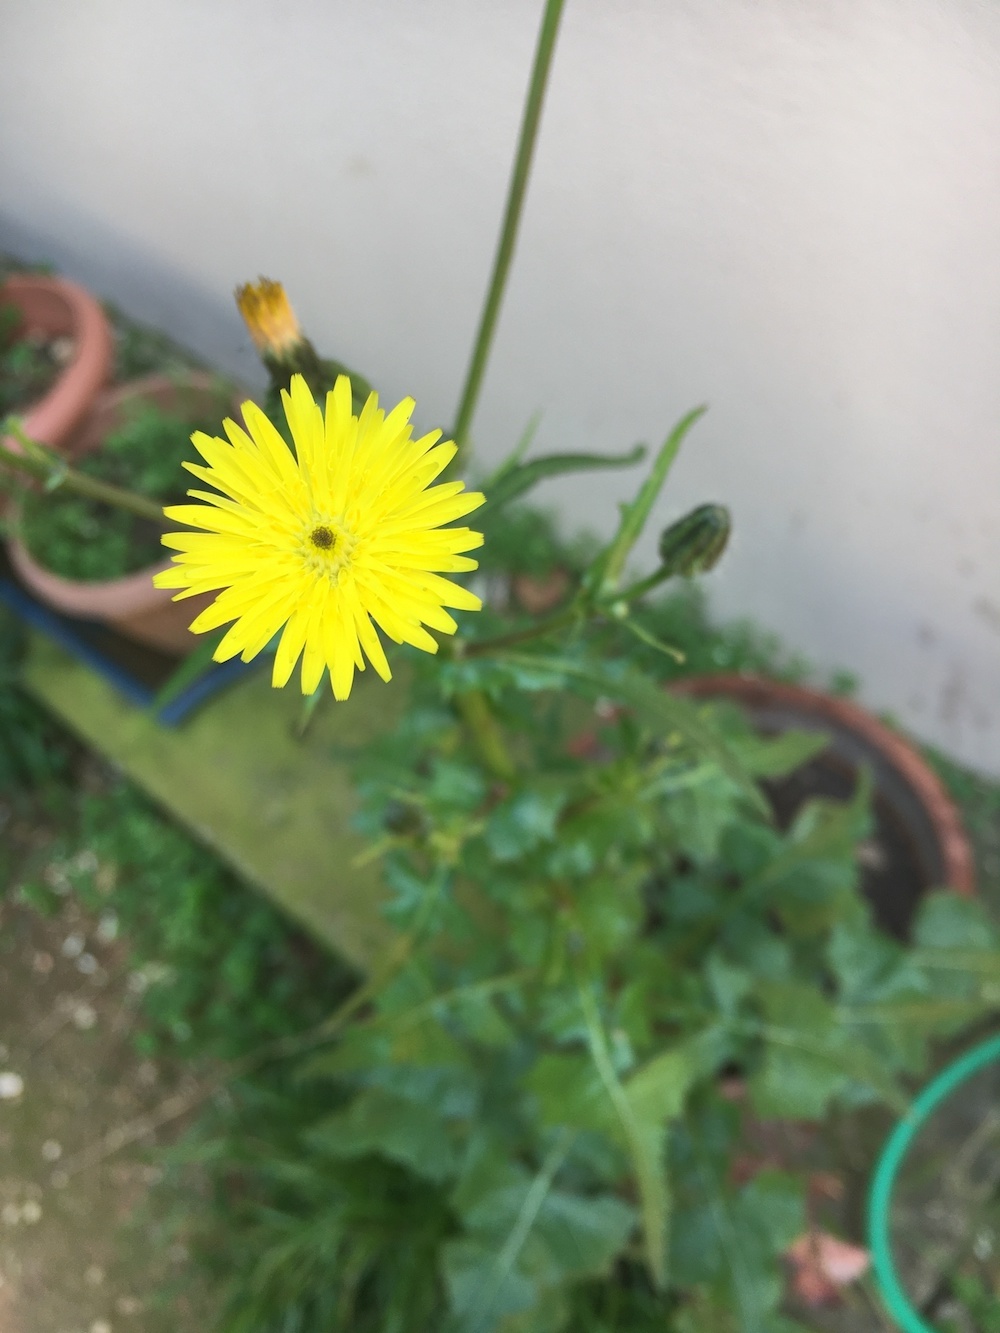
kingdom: Plantae
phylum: Tracheophyta
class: Magnoliopsida
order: Asterales
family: Asteraceae
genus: Urospermum
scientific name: Urospermum picroides
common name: False hawkbit
